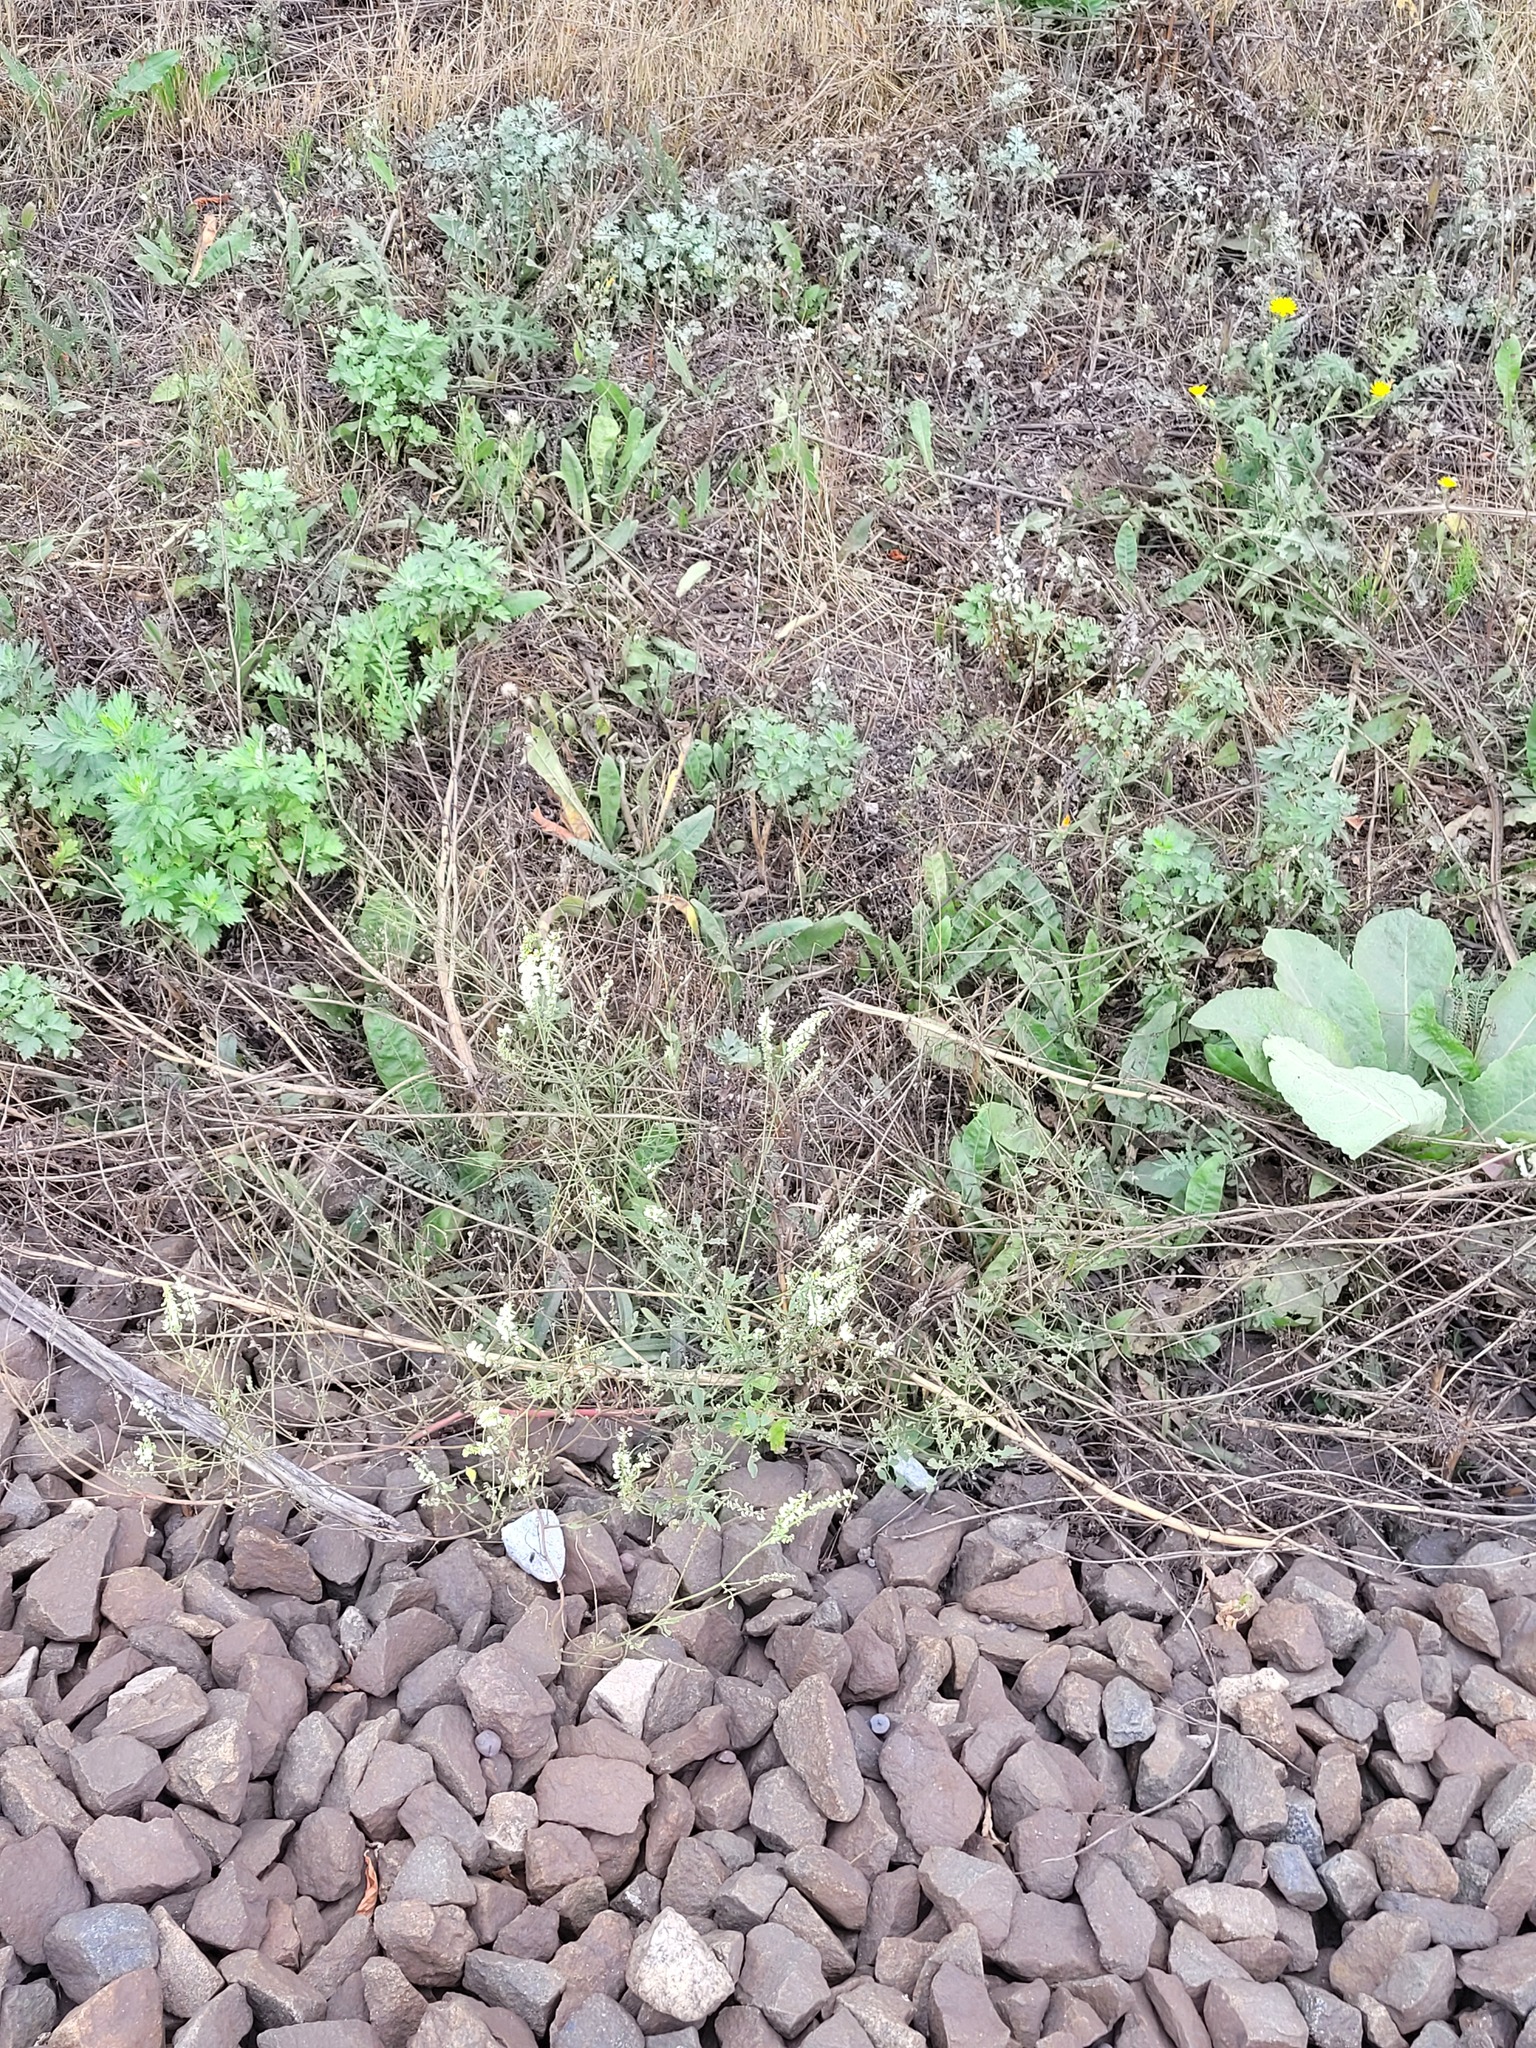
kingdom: Plantae
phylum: Tracheophyta
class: Magnoliopsida
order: Fabales
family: Fabaceae
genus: Melilotus
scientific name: Melilotus albus
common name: White melilot
